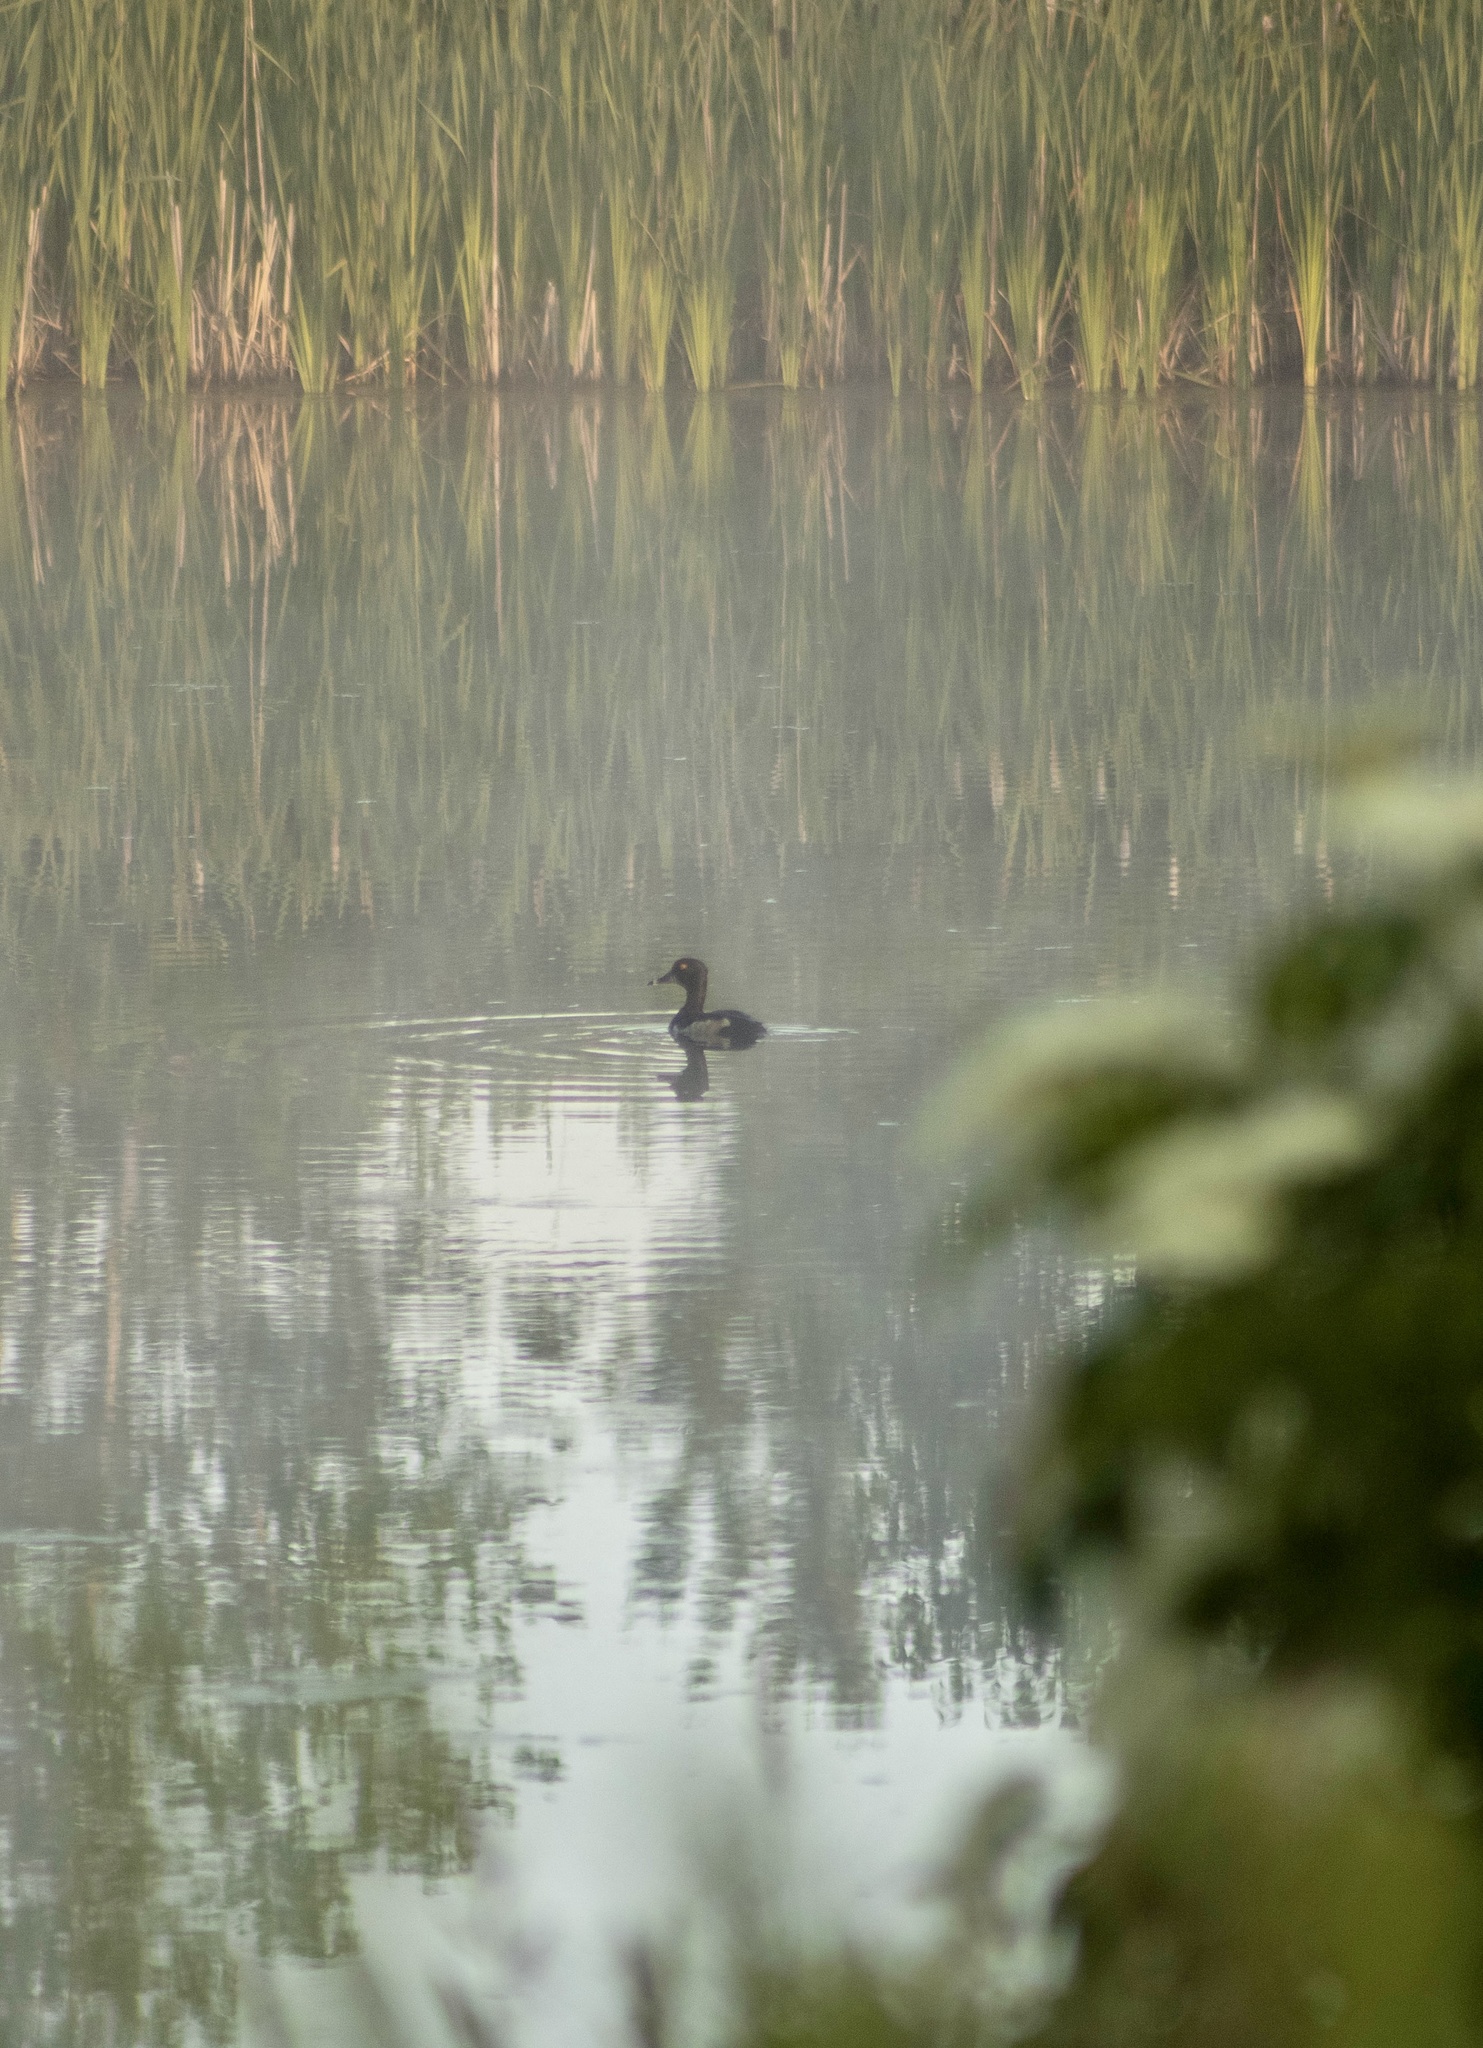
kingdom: Animalia
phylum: Chordata
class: Aves
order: Anseriformes
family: Anatidae
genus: Aythya
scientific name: Aythya collaris
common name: Ring-necked duck
